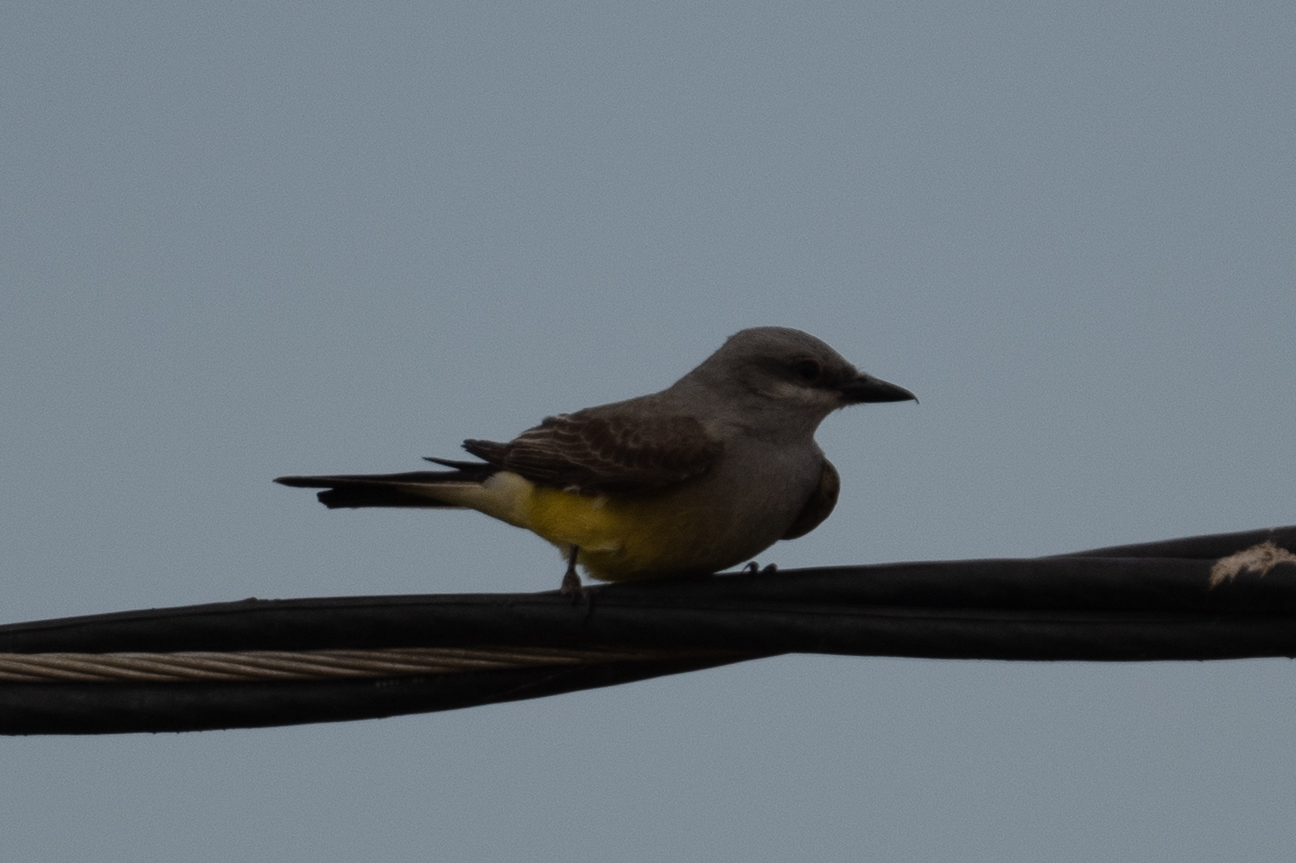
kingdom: Animalia
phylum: Chordata
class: Aves
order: Passeriformes
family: Tyrannidae
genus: Tyrannus
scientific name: Tyrannus verticalis
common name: Western kingbird
